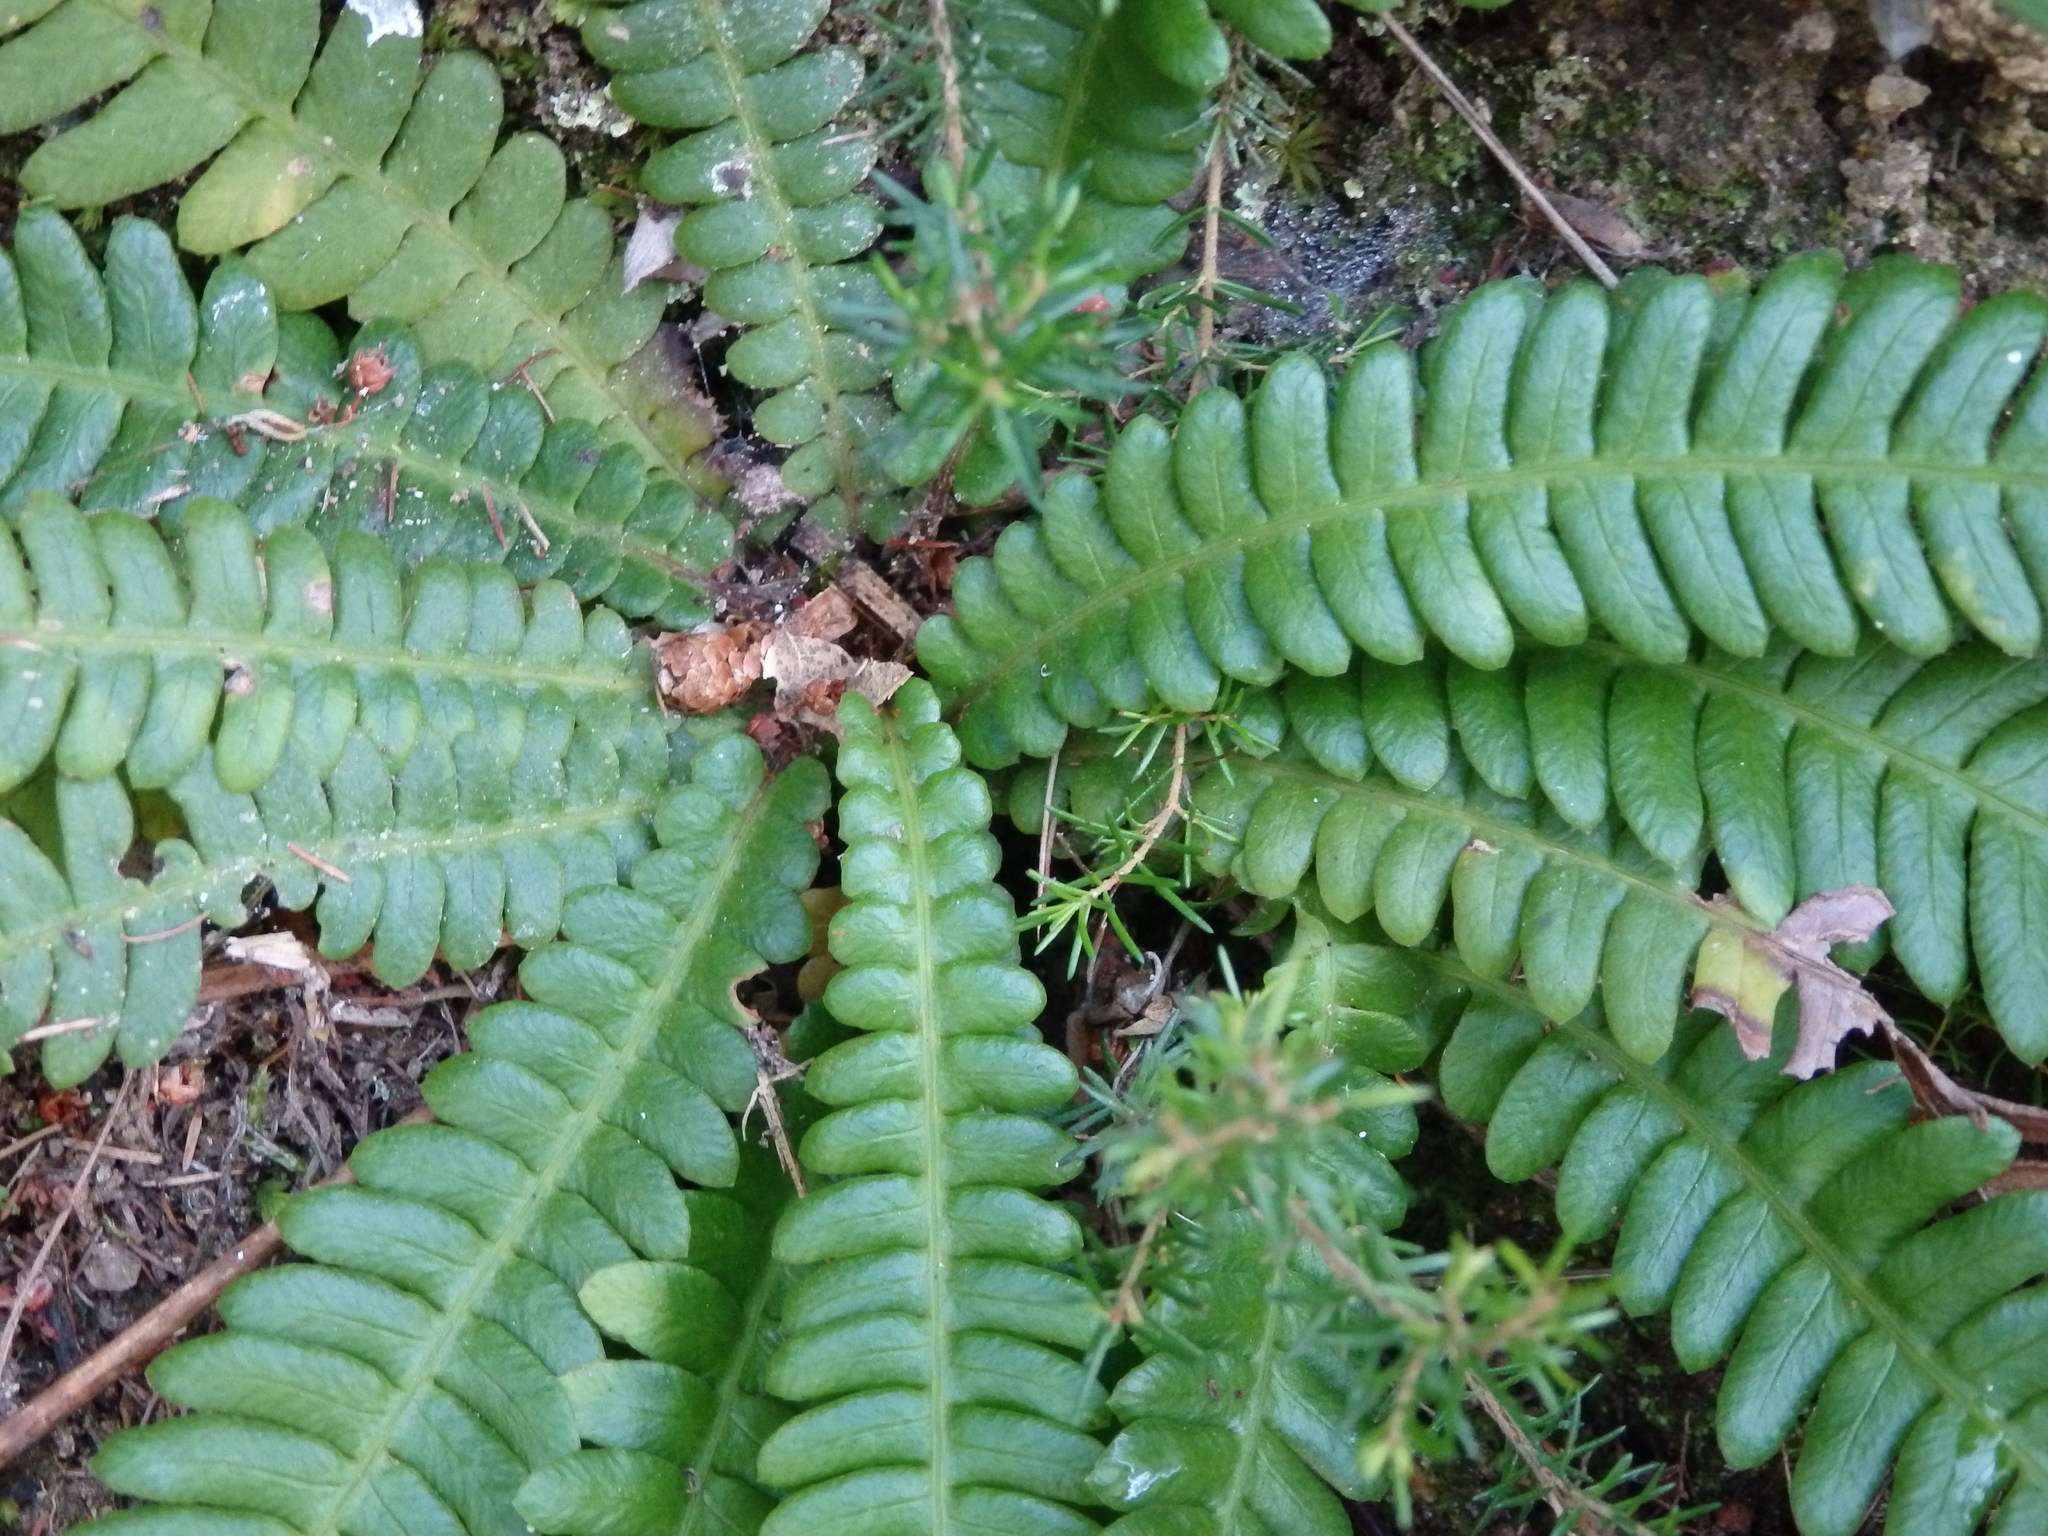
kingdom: Plantae
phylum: Tracheophyta
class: Polypodiopsida
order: Polypodiales
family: Blechnaceae
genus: Struthiopteris
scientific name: Struthiopteris spicant
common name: Deer fern
